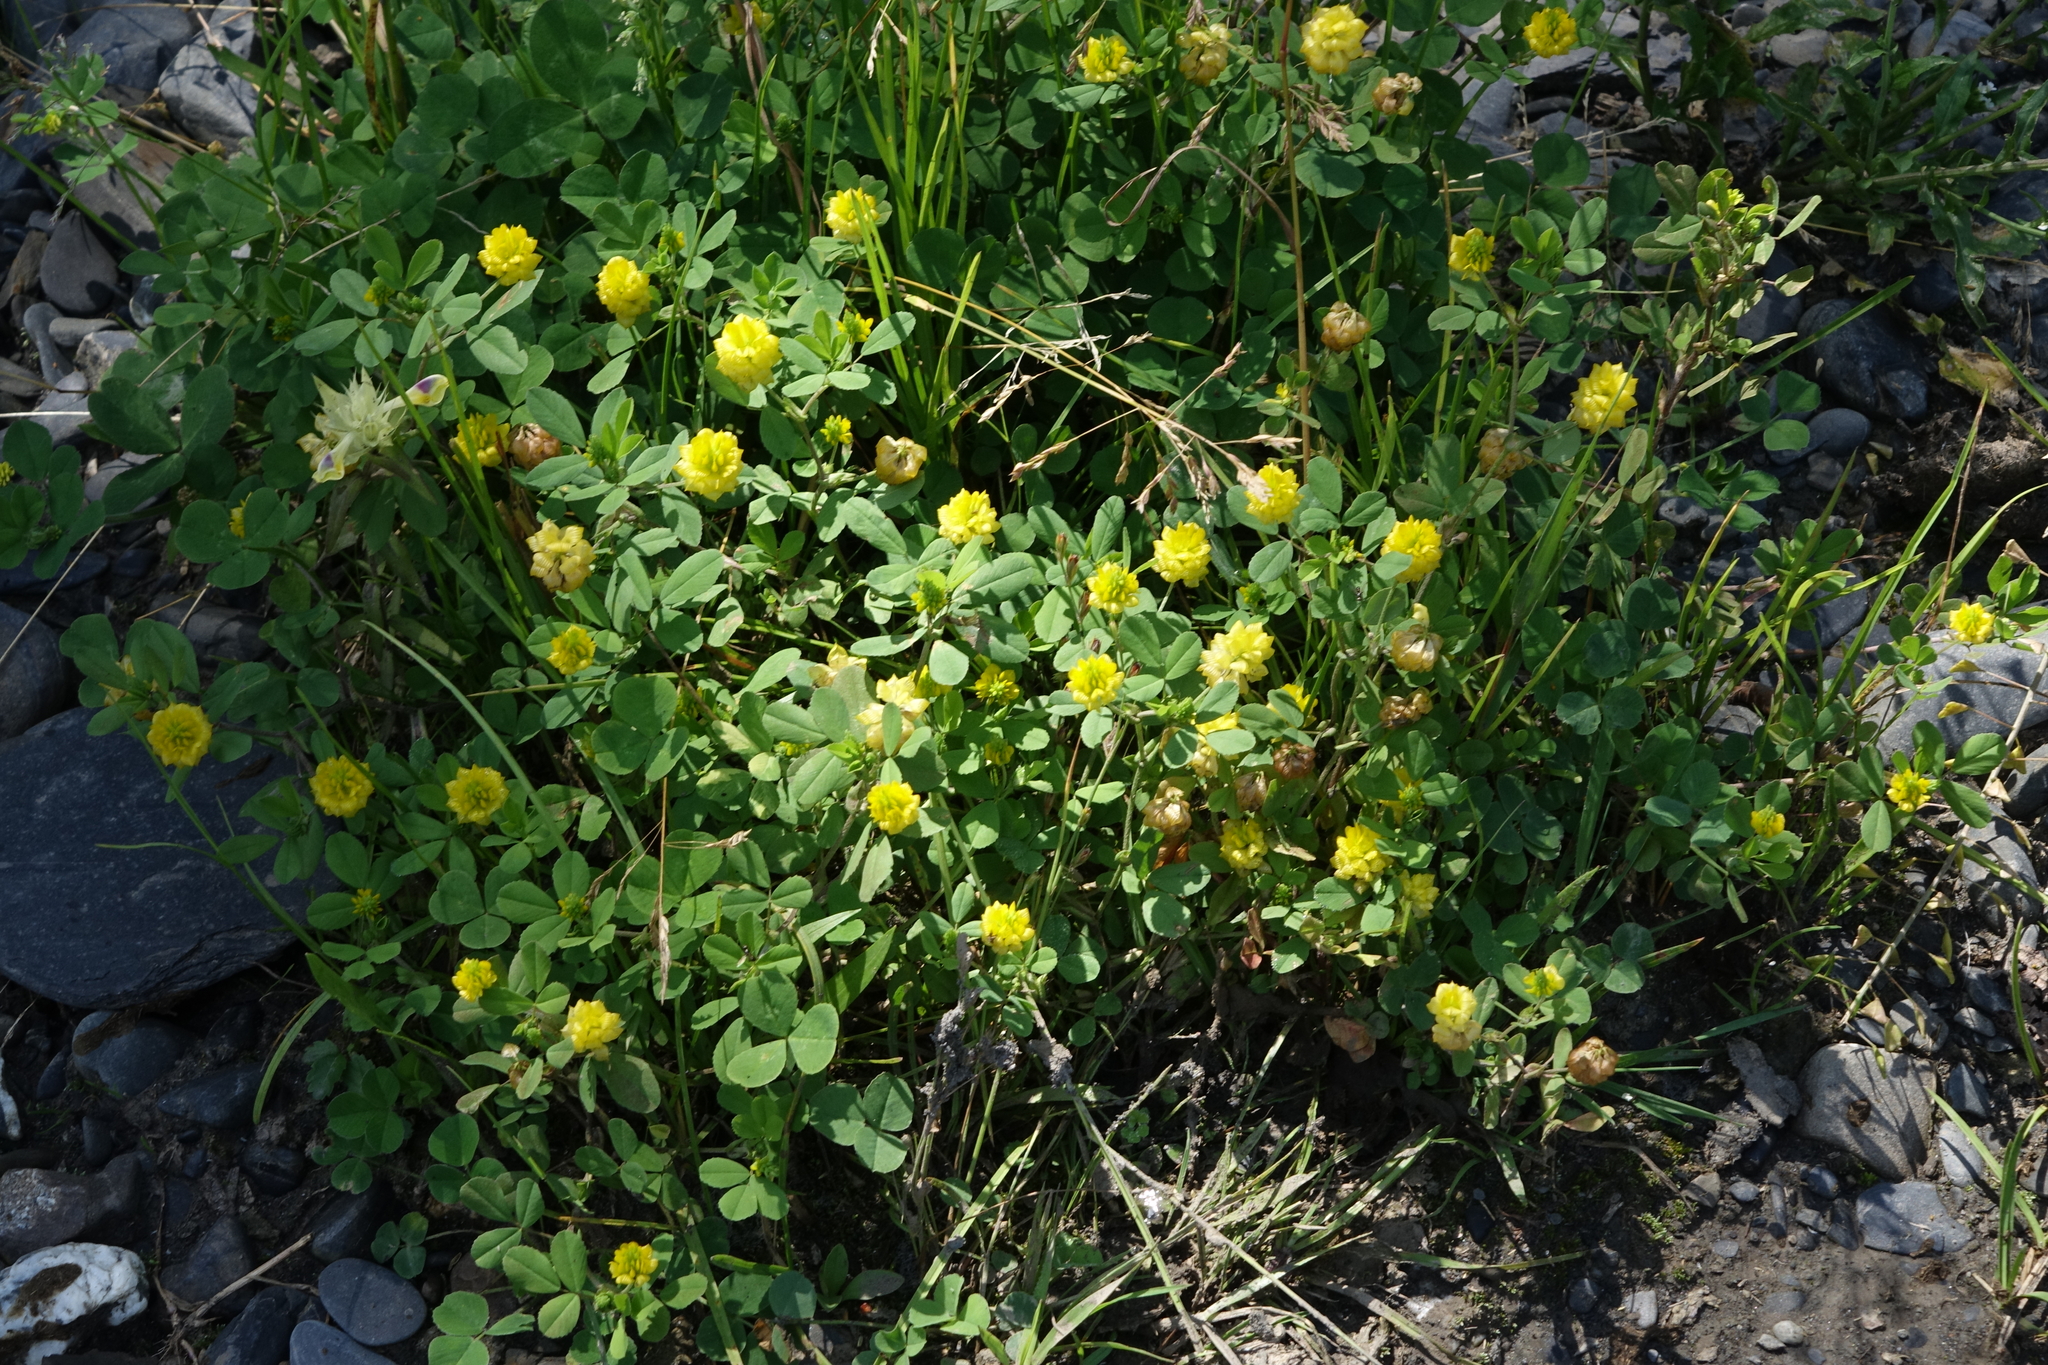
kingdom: Plantae
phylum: Tracheophyta
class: Magnoliopsida
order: Fabales
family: Fabaceae
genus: Trifolium
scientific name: Trifolium campestre
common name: Field clover
